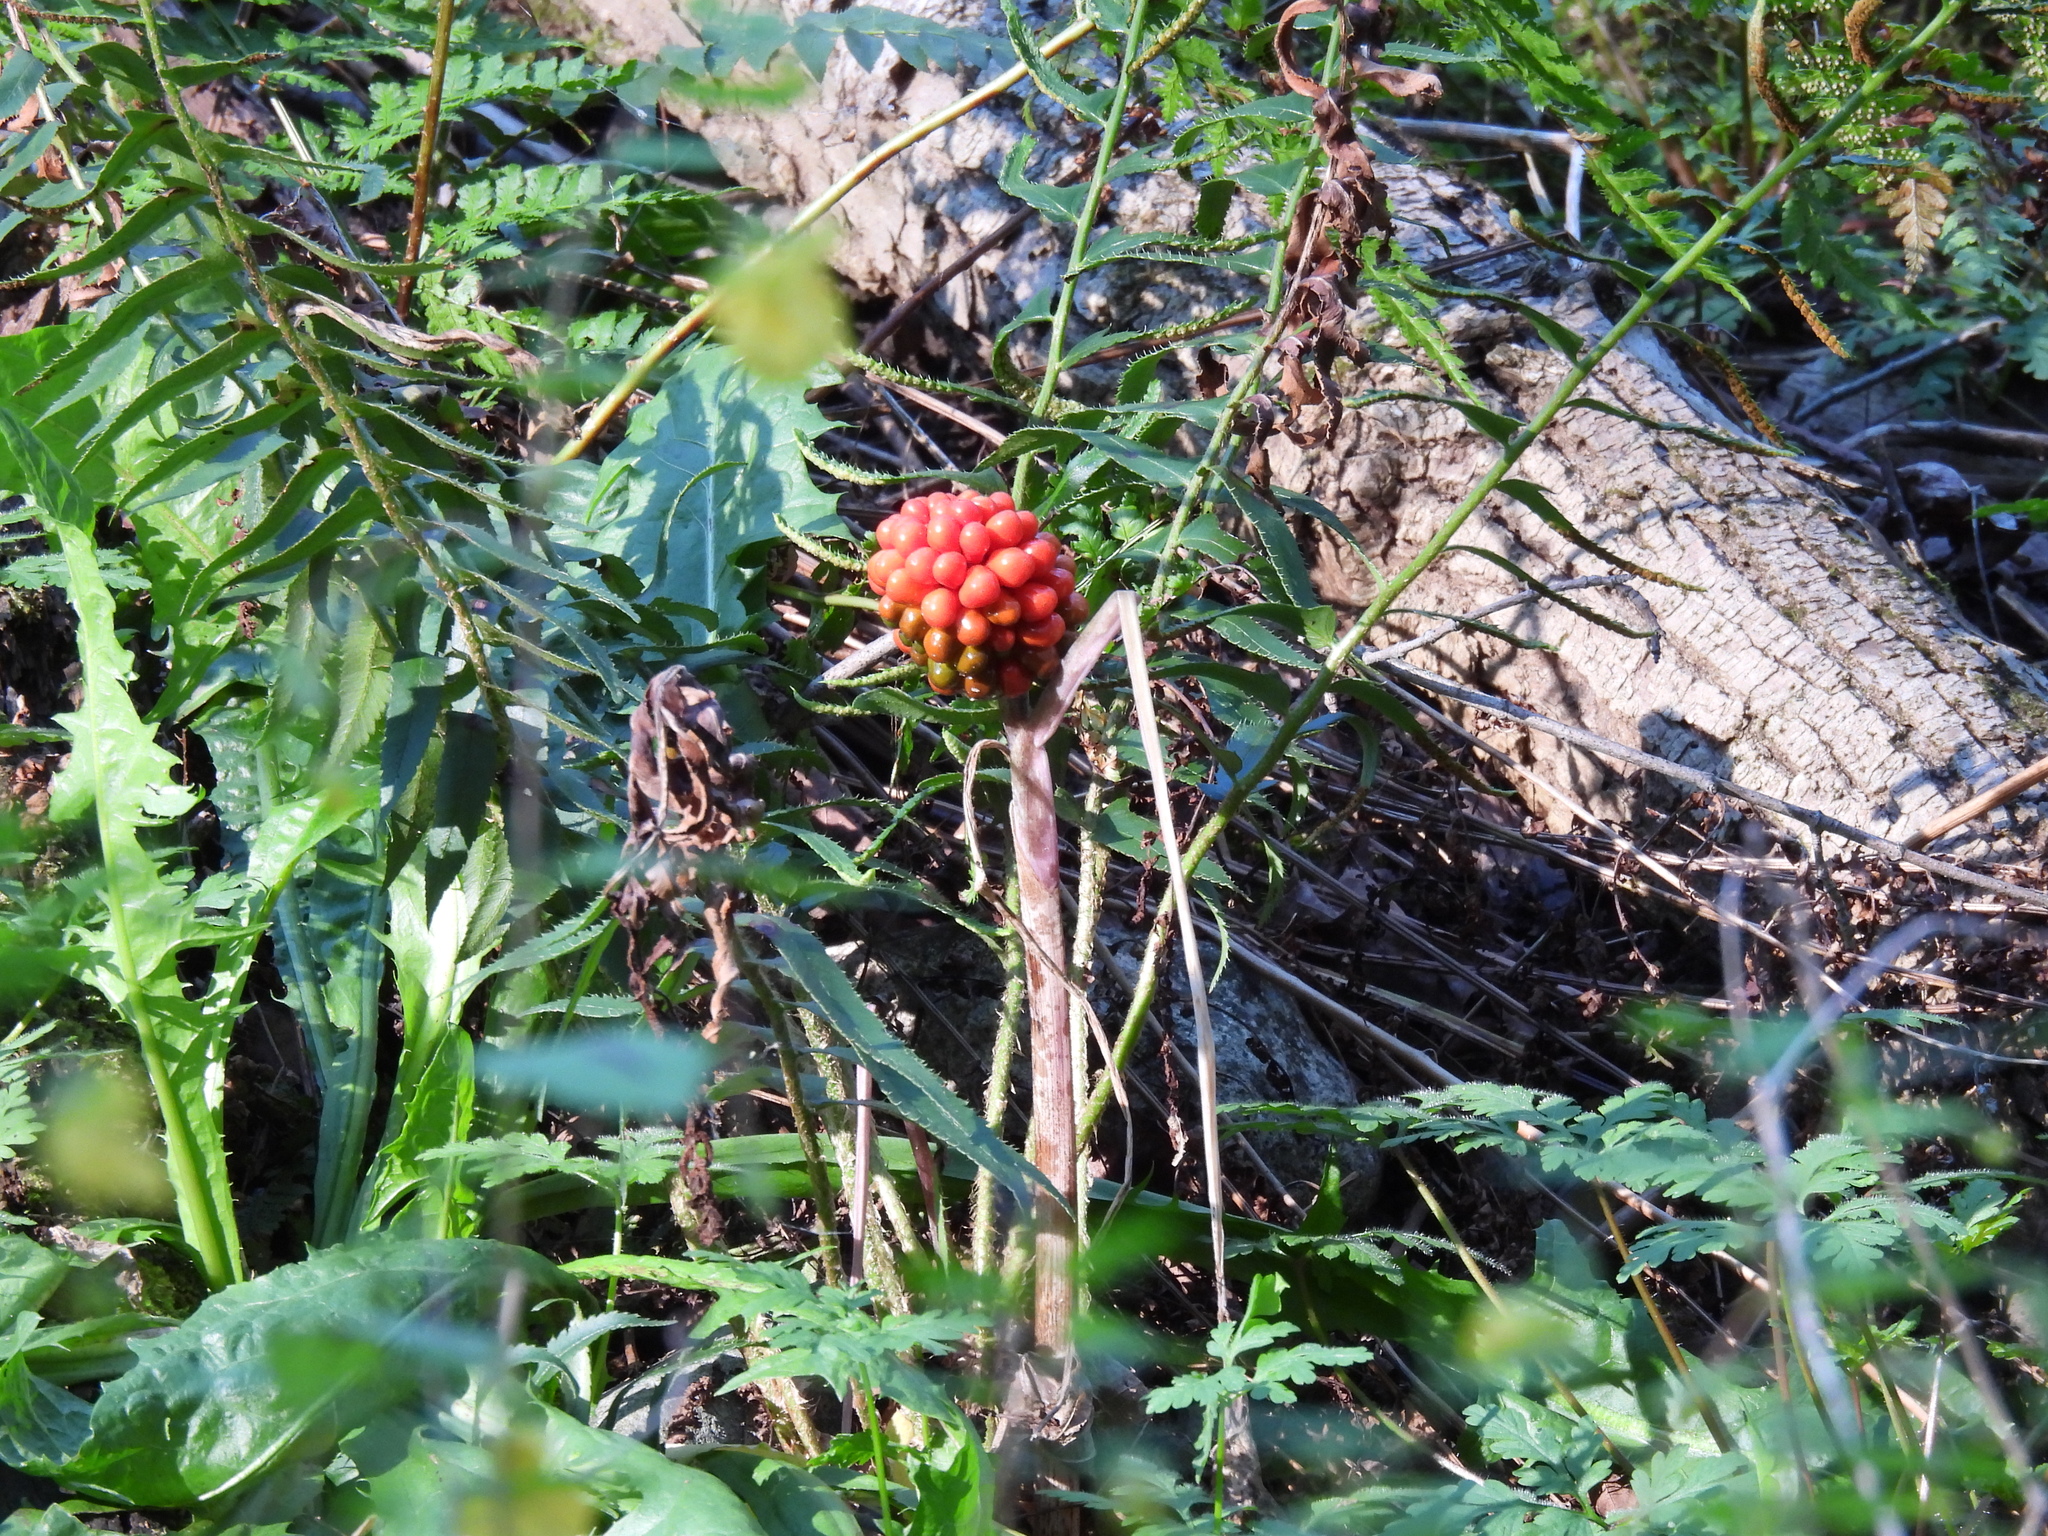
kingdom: Plantae
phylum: Tracheophyta
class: Liliopsida
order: Alismatales
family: Araceae
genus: Arisaema
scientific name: Arisaema triphyllum
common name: Jack-in-the-pulpit
